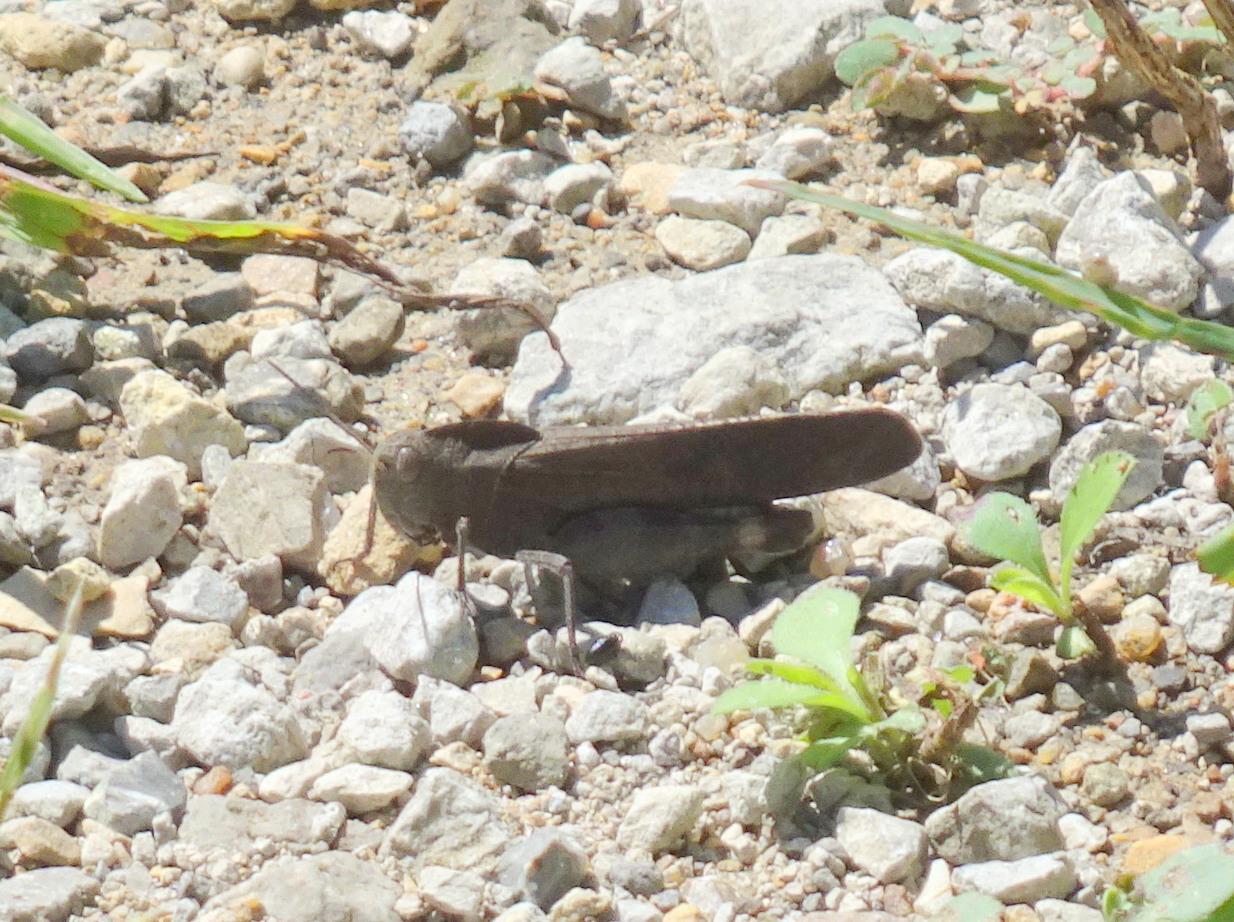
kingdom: Animalia
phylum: Arthropoda
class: Insecta
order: Orthoptera
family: Acrididae
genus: Dissosteira
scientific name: Dissosteira carolina
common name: Carolina grasshopper
